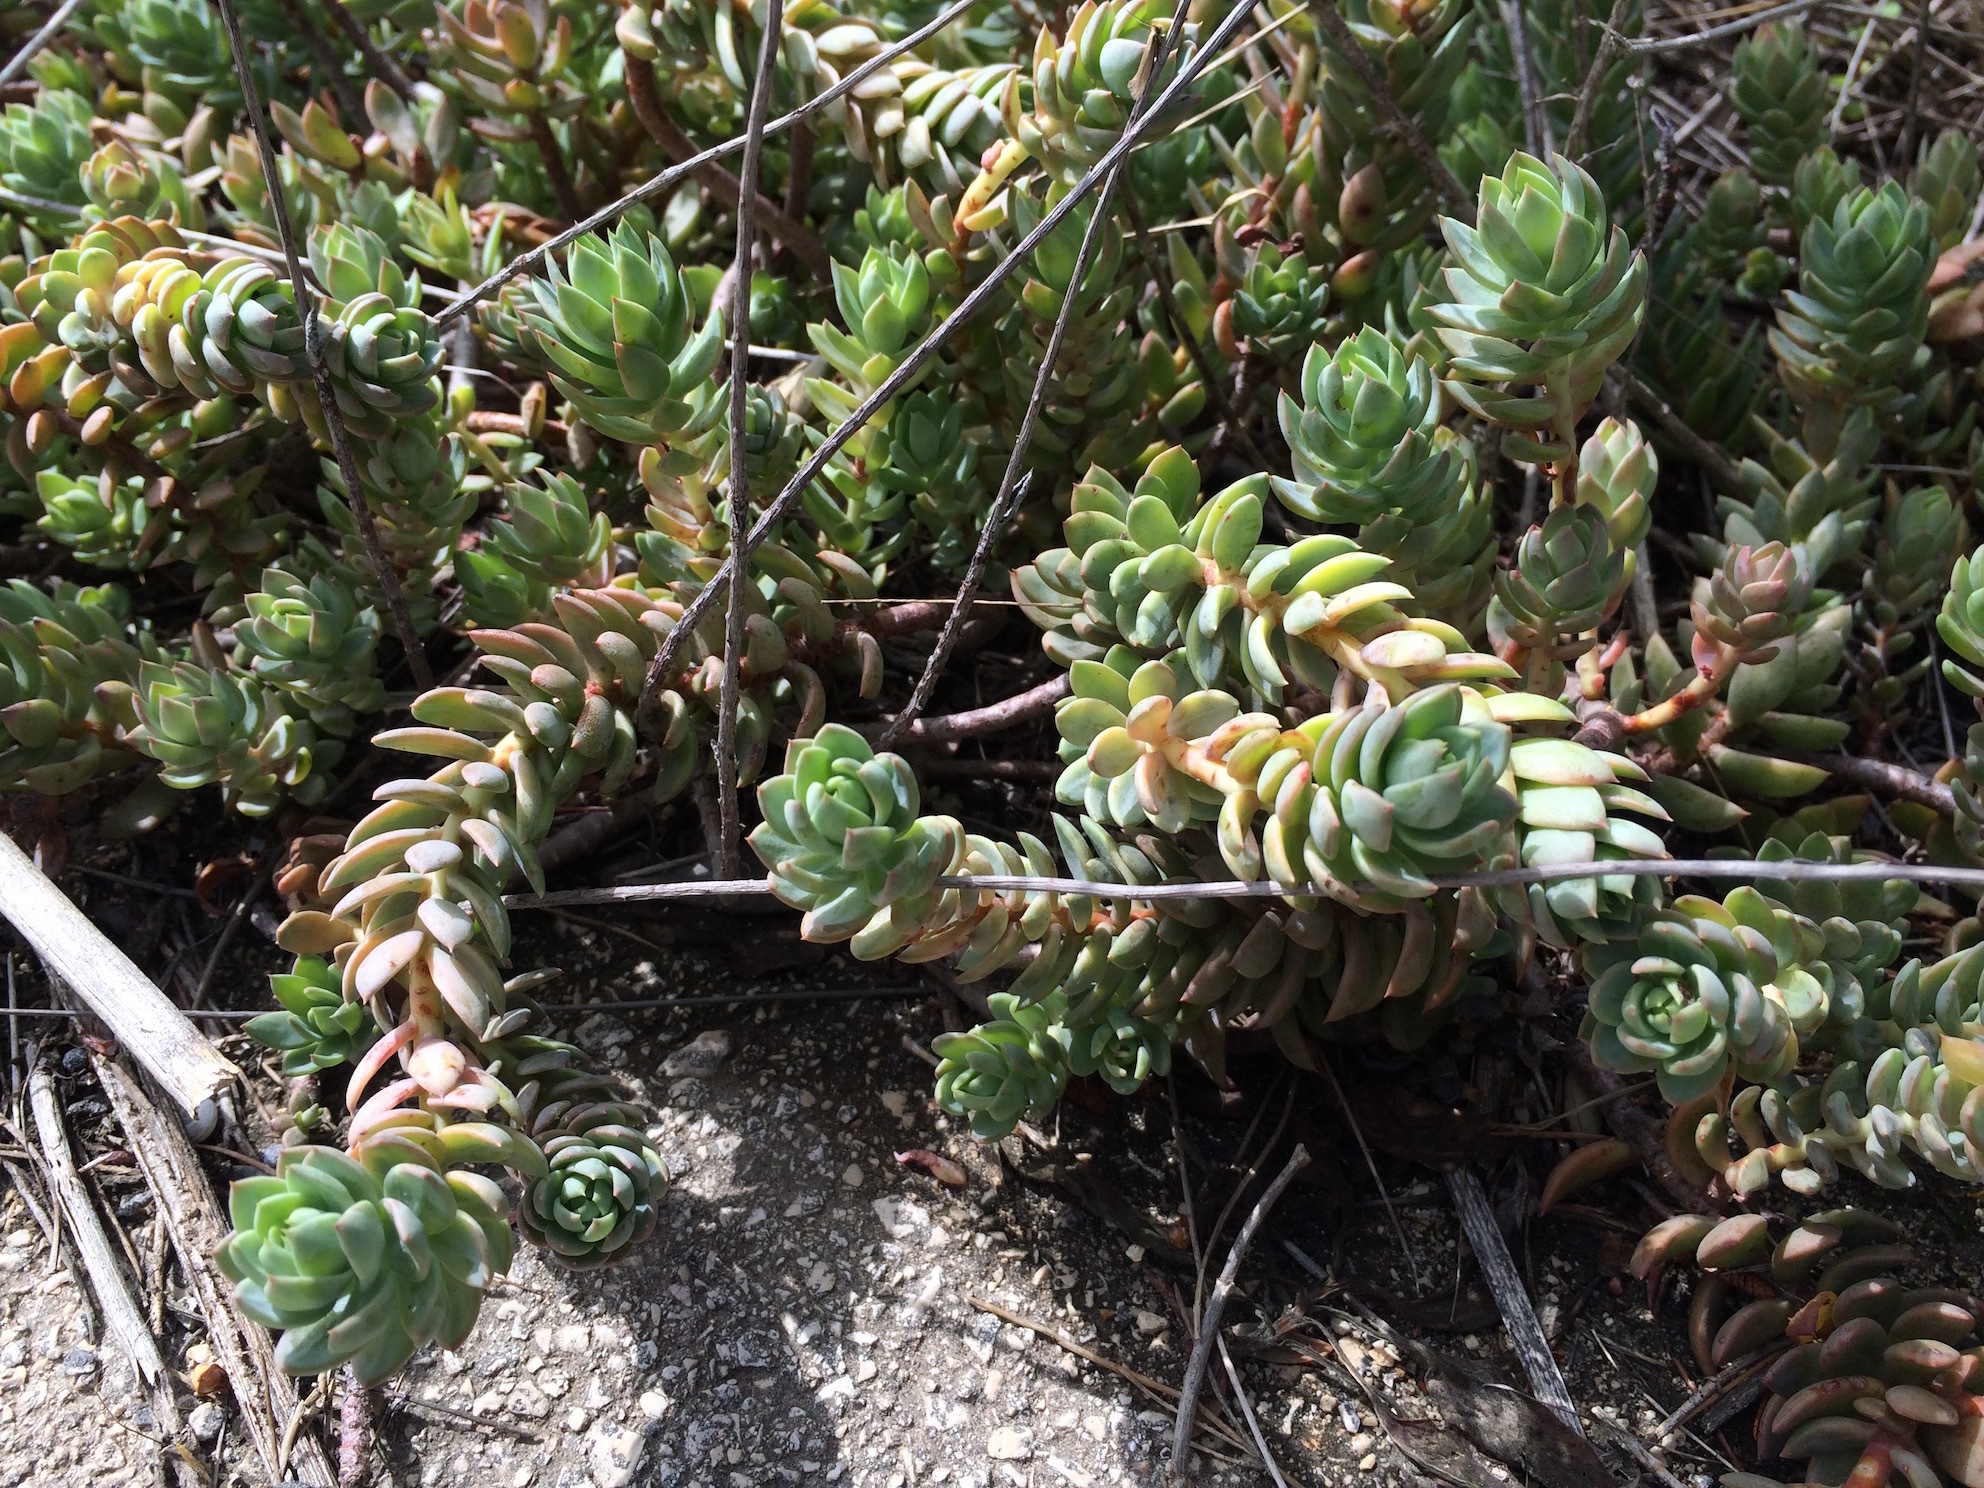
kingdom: Plantae
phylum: Tracheophyta
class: Magnoliopsida
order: Saxifragales
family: Crassulaceae
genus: Petrosedum
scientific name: Petrosedum sediforme
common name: Pale stonecrop
